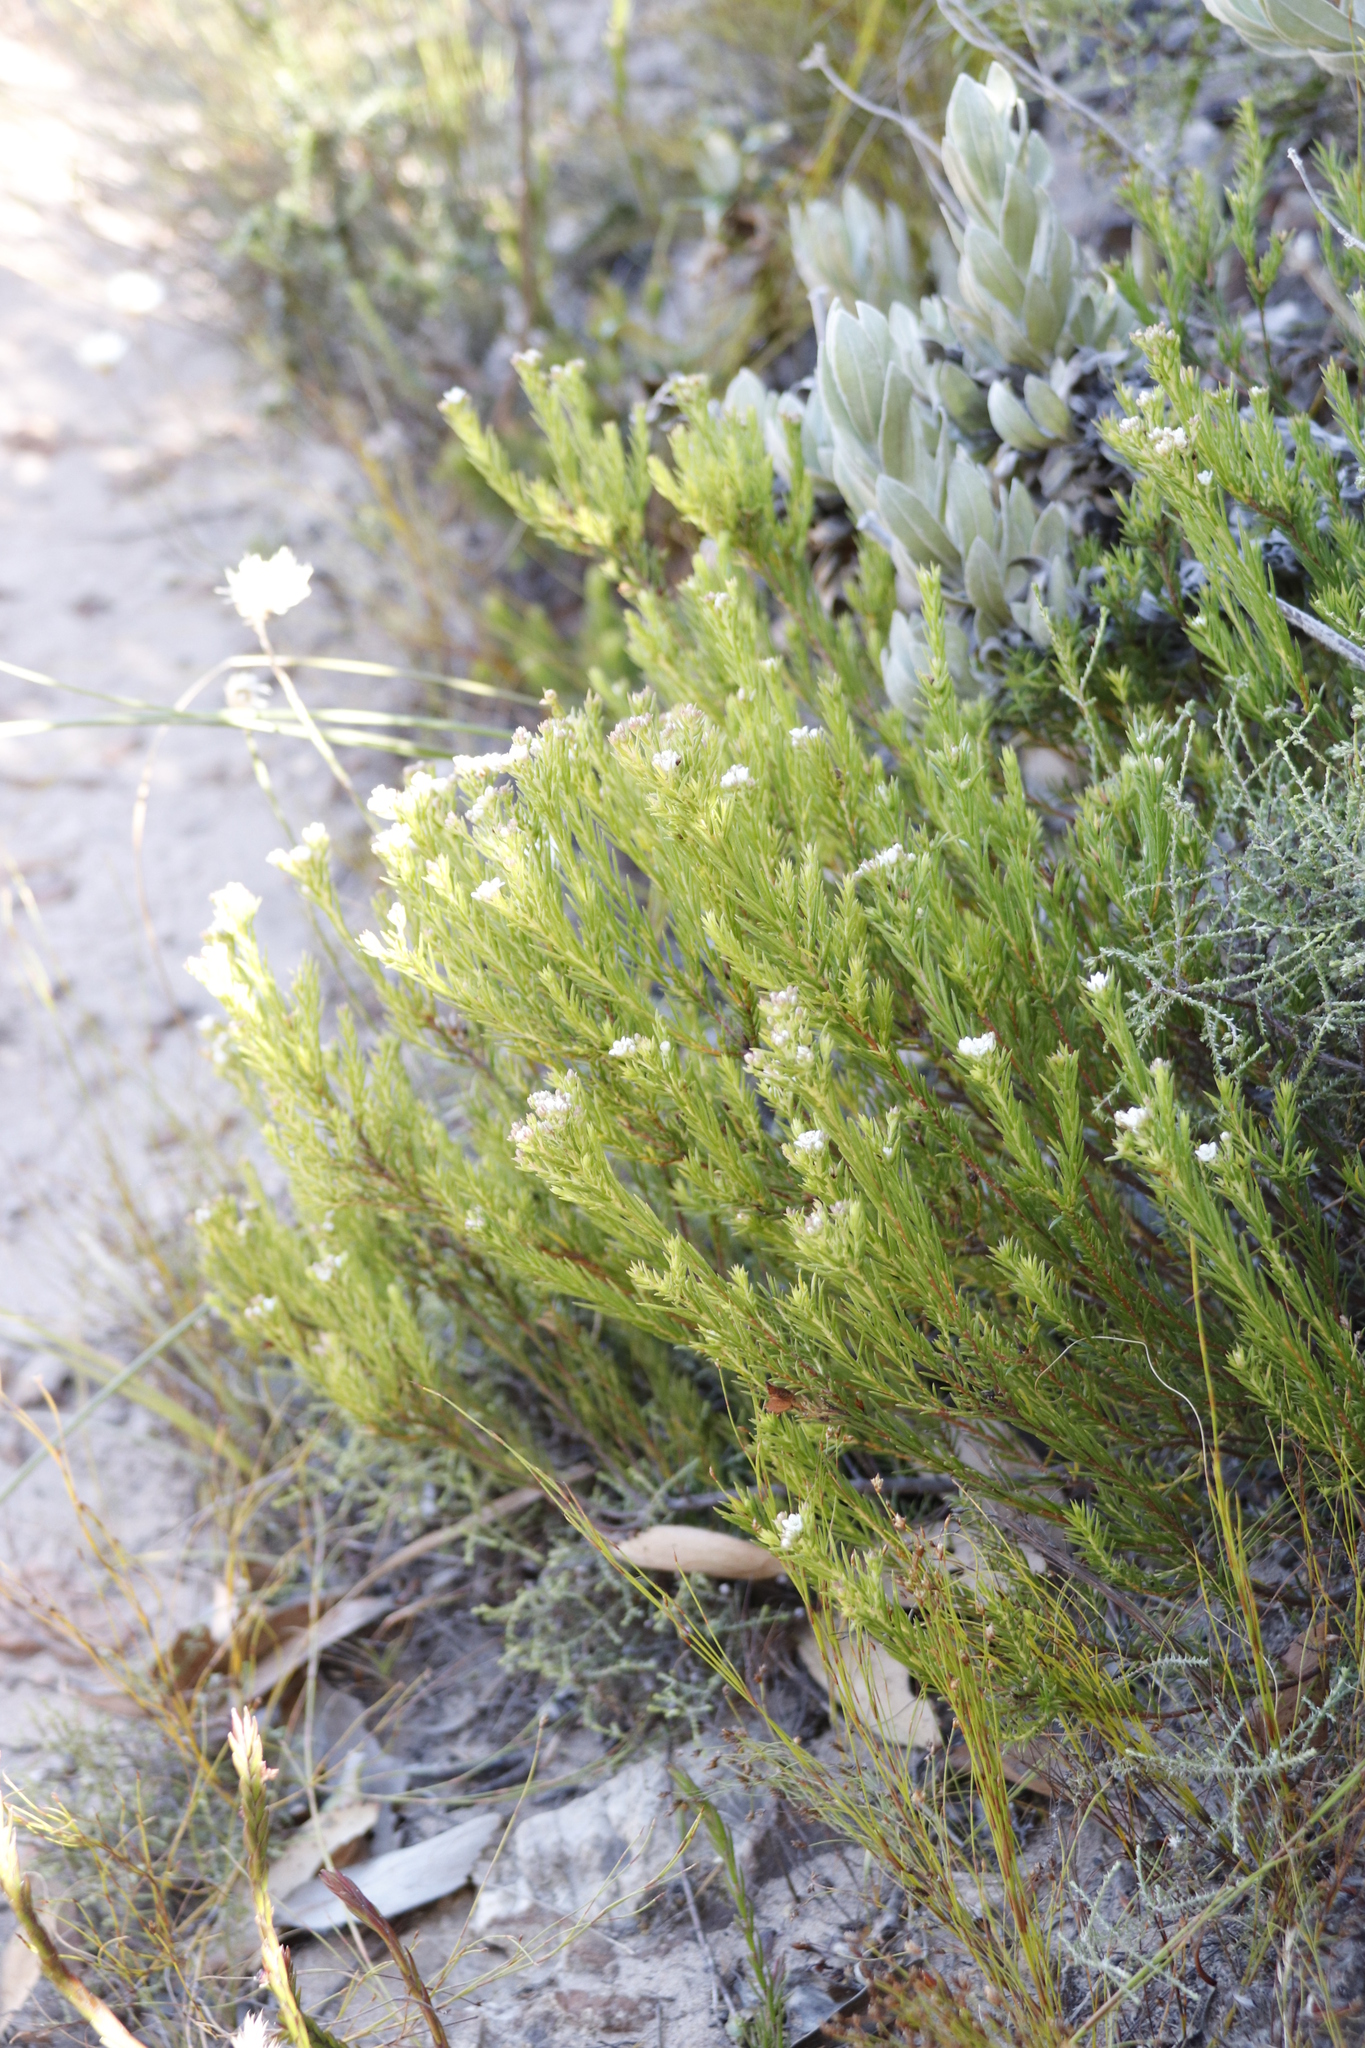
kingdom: Plantae
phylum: Tracheophyta
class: Magnoliopsida
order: Sapindales
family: Rutaceae
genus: Diosma
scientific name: Diosma hirsuta
